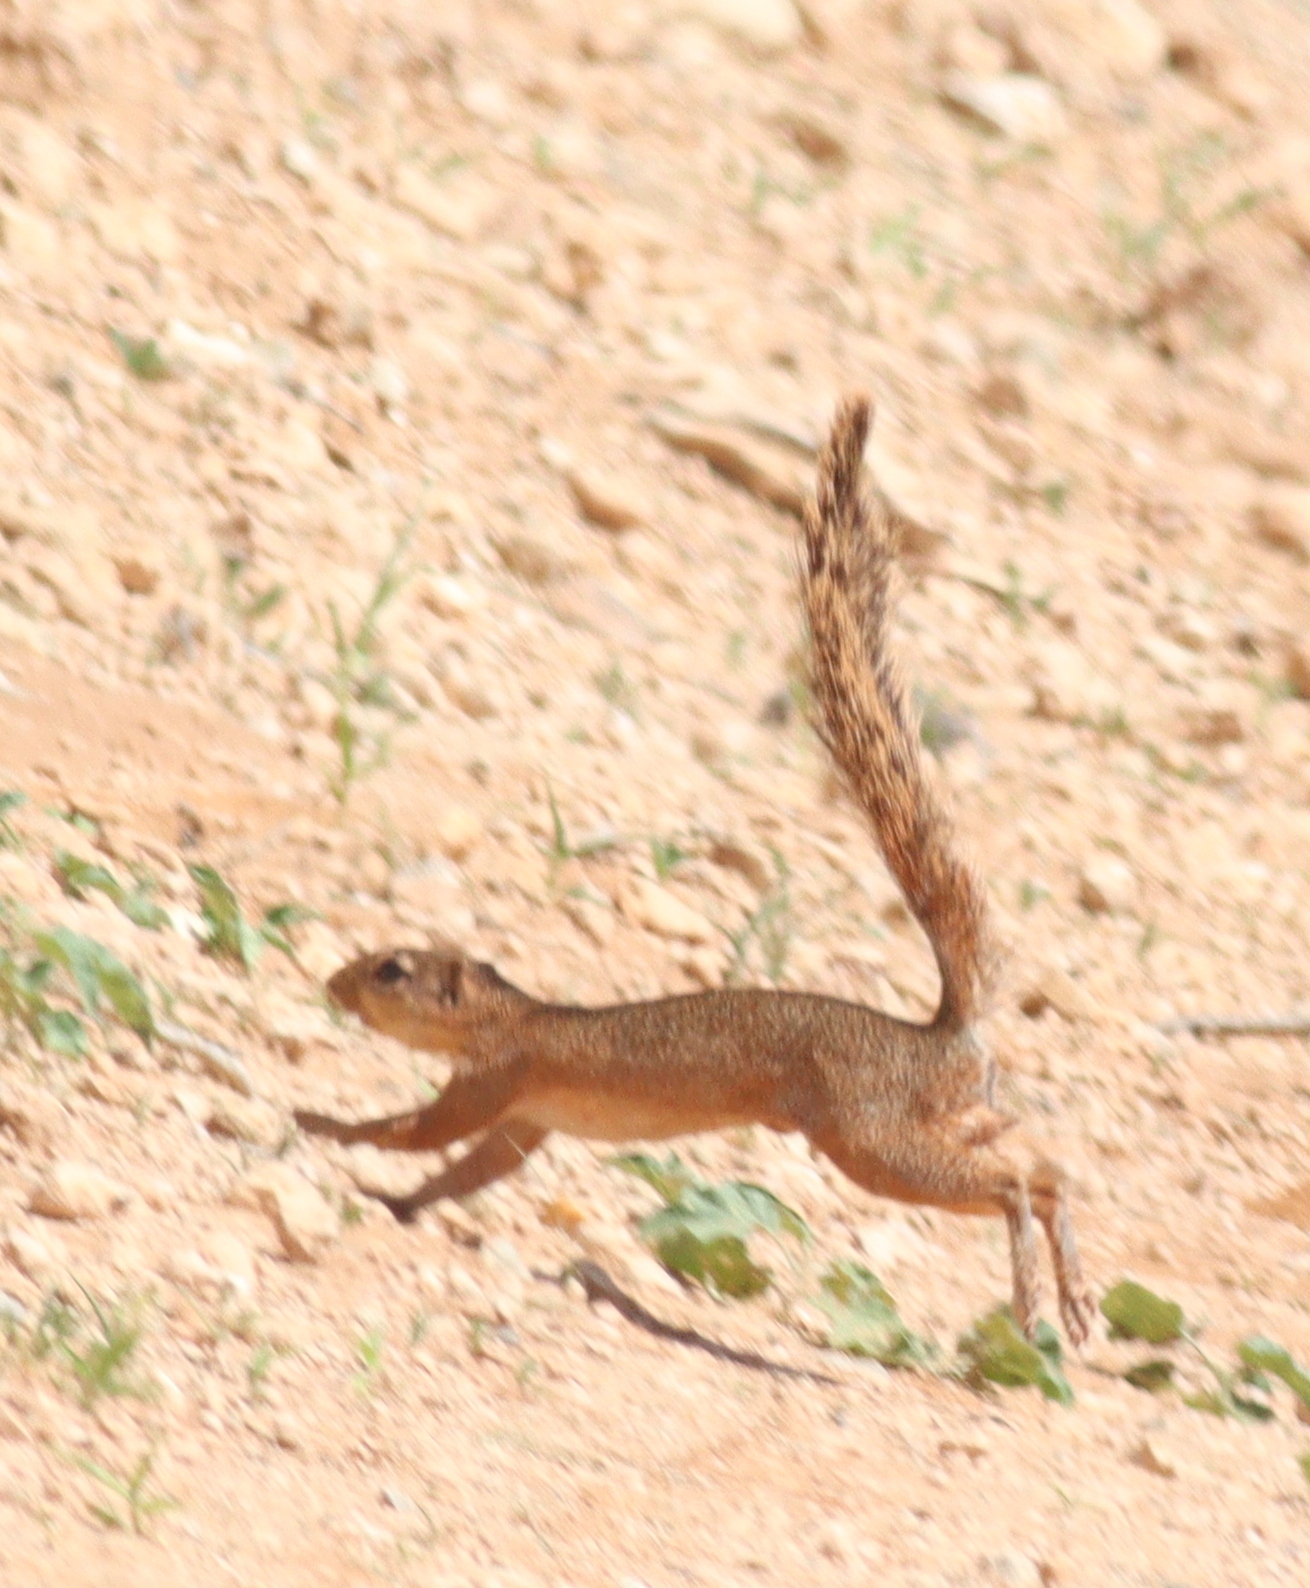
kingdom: Animalia
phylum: Chordata
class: Mammalia
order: Rodentia
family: Sciuridae
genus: Xerus
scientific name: Xerus rutilus
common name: Unstriped ground squirrel
